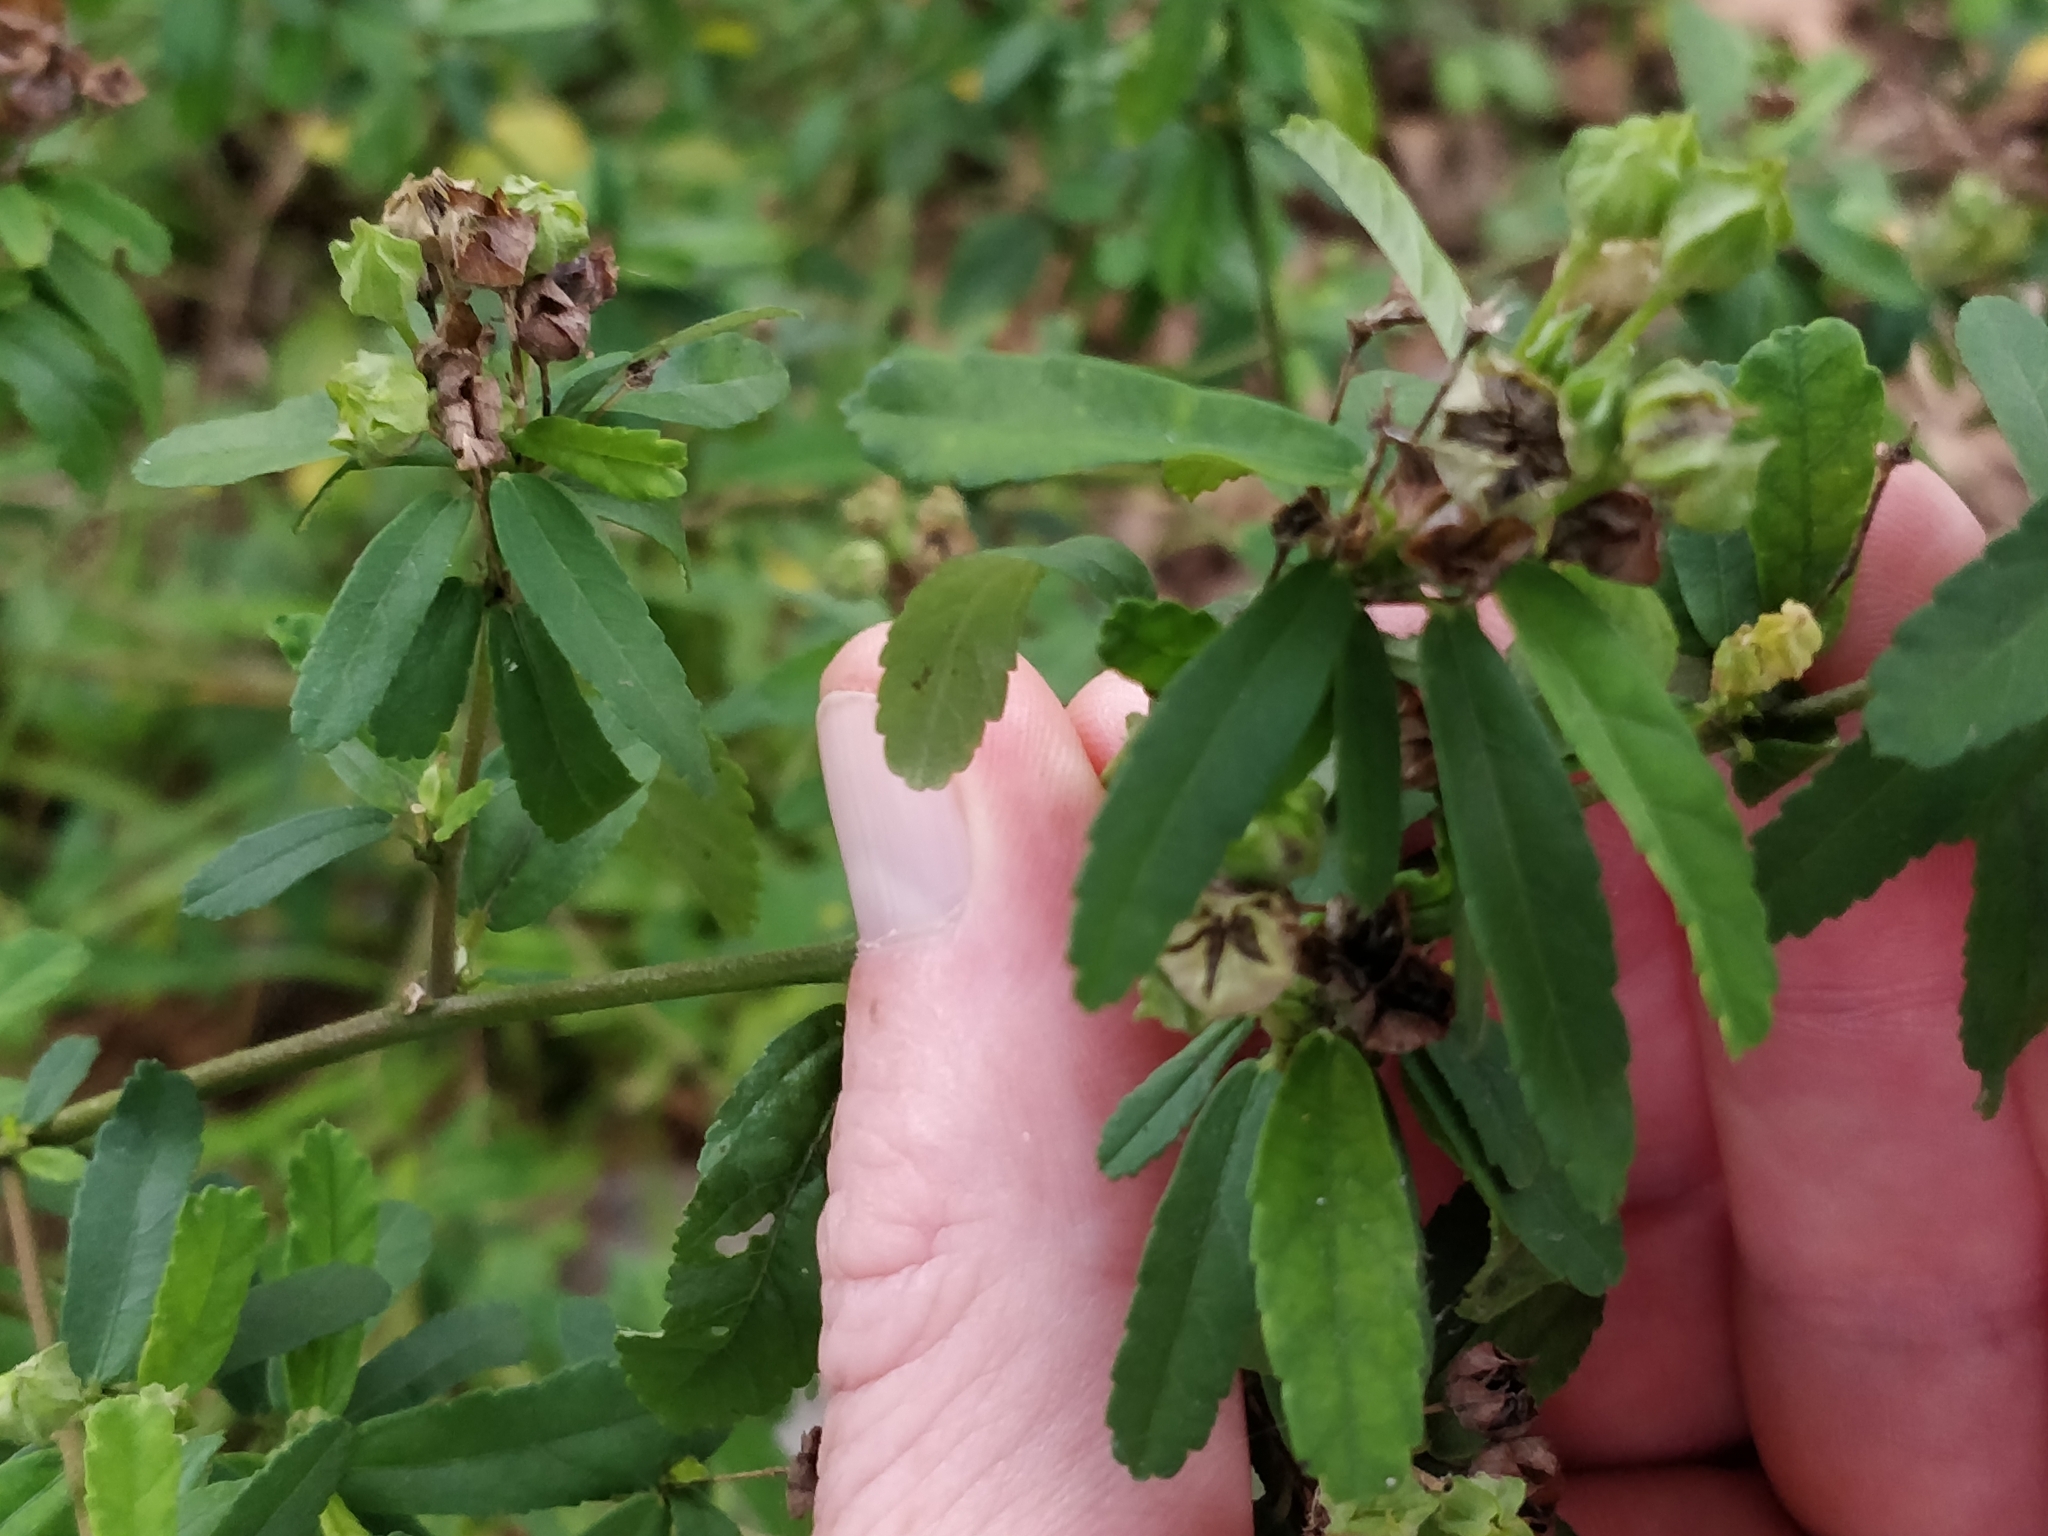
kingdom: Plantae
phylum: Tracheophyta
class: Magnoliopsida
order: Malvales
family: Malvaceae
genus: Sida
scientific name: Sida rhombifolia
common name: Queensland-hemp
